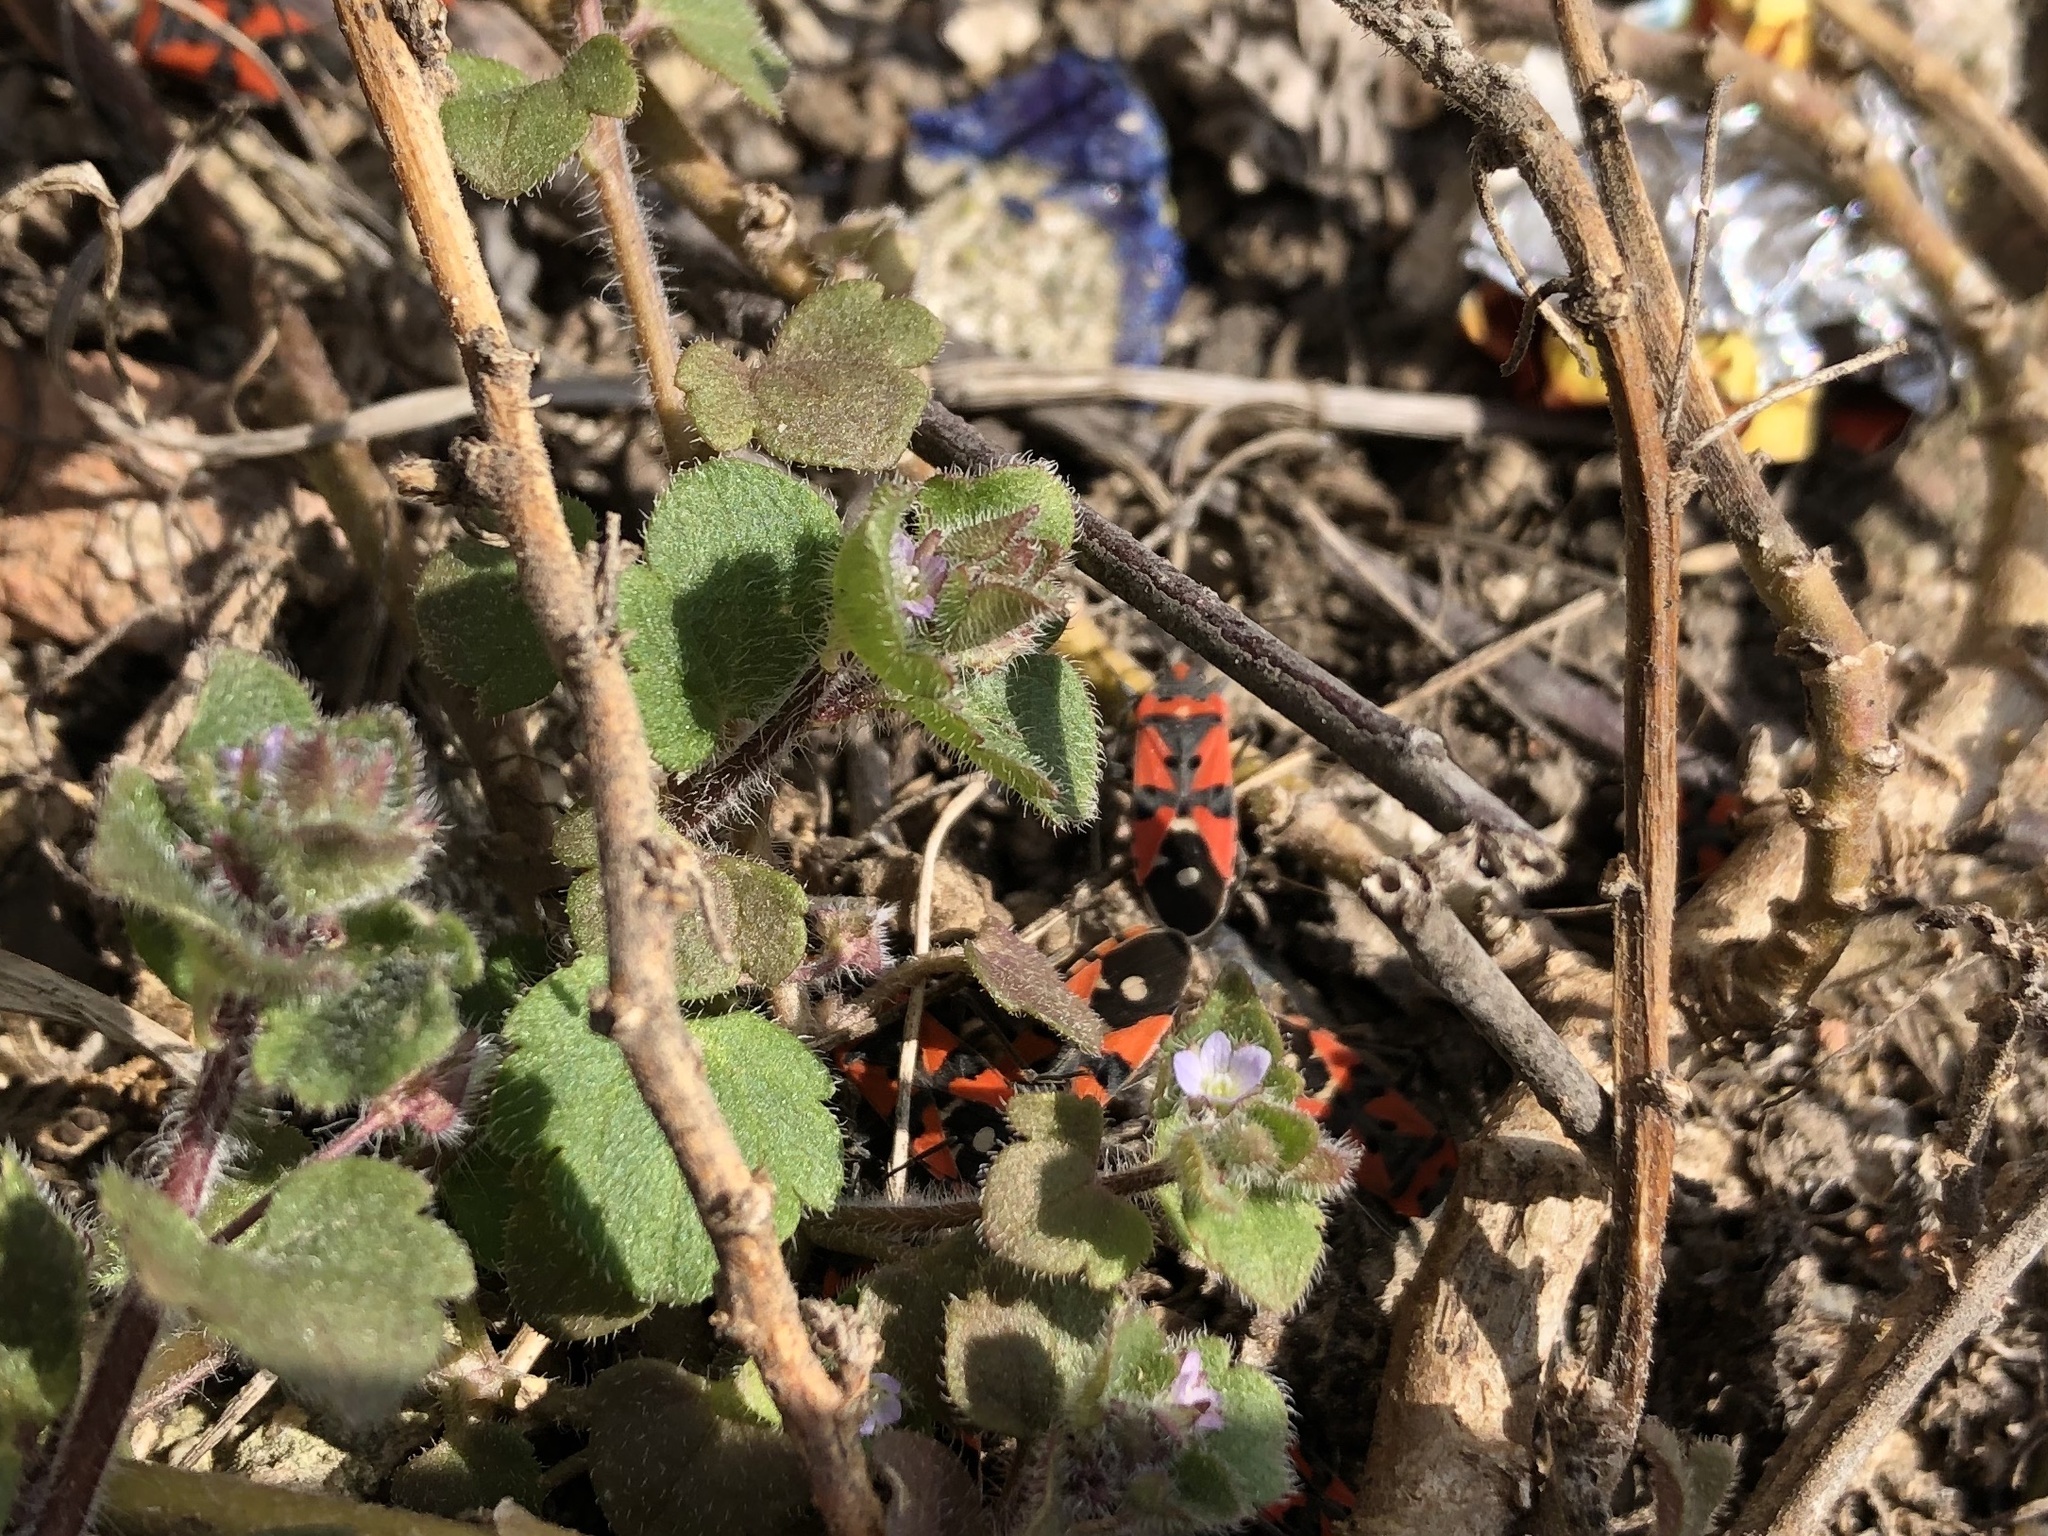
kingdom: Animalia
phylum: Arthropoda
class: Insecta
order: Hemiptera
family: Lygaeidae
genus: Lygaeus
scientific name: Lygaeus equestris
